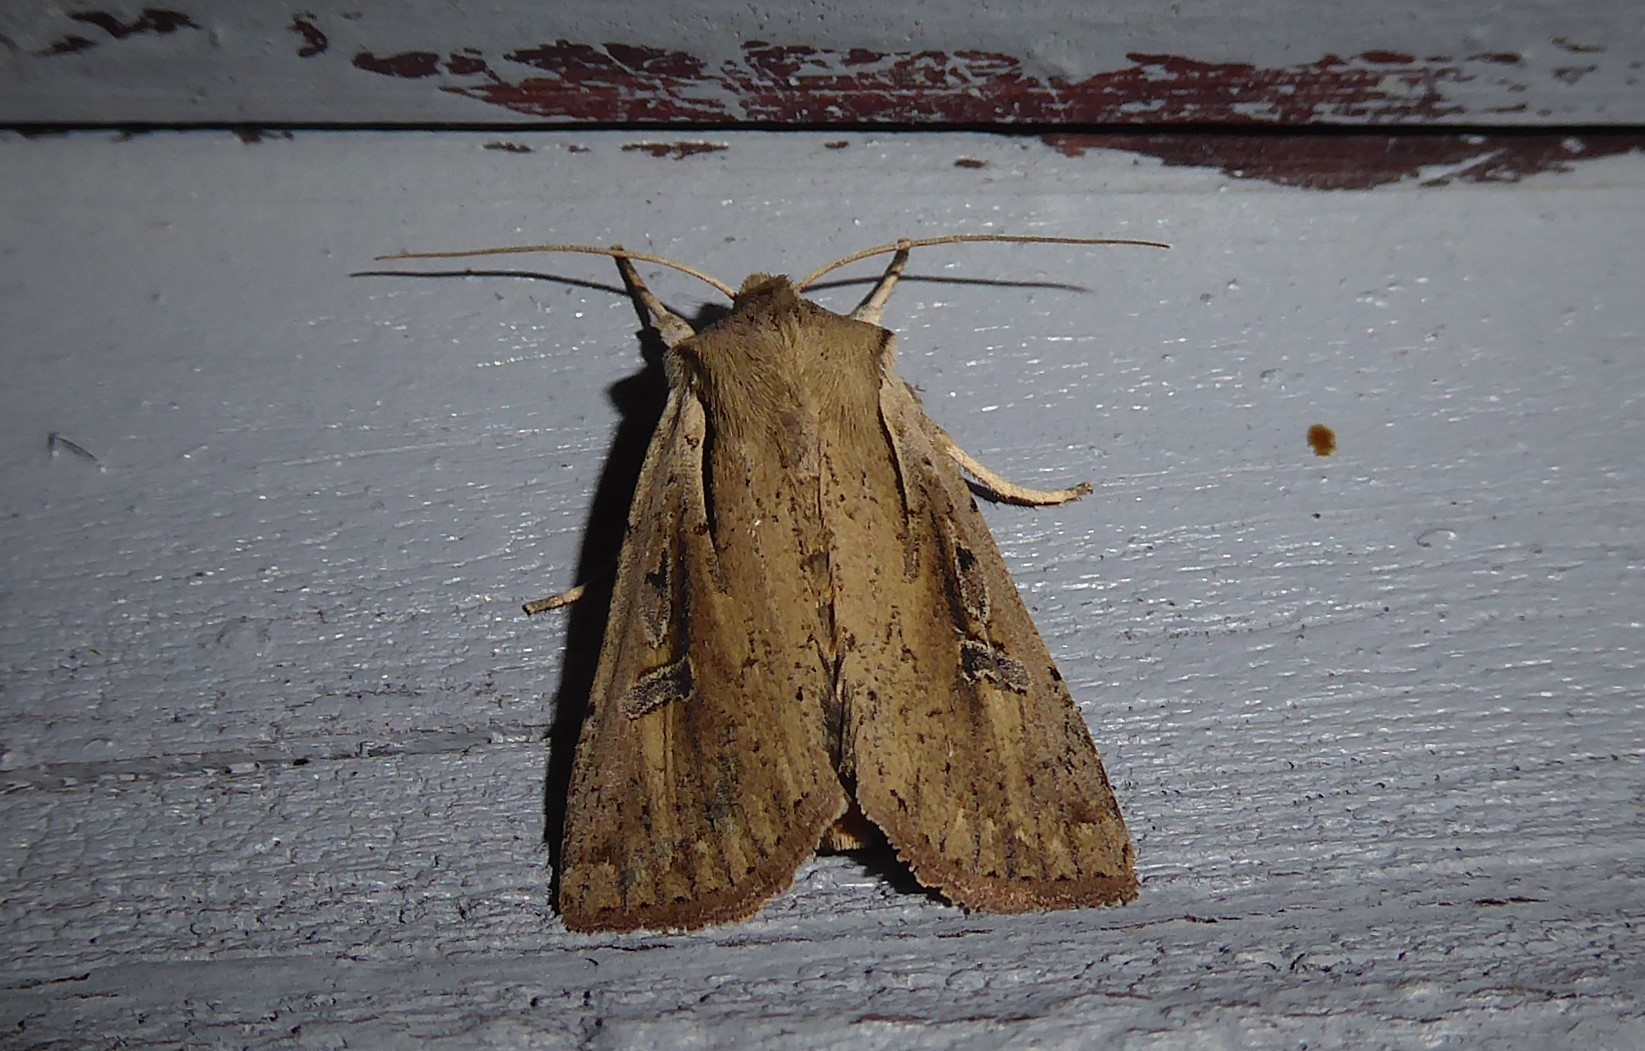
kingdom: Animalia
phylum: Arthropoda
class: Insecta
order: Lepidoptera
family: Noctuidae
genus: Ichneutica
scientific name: Ichneutica atristriga
